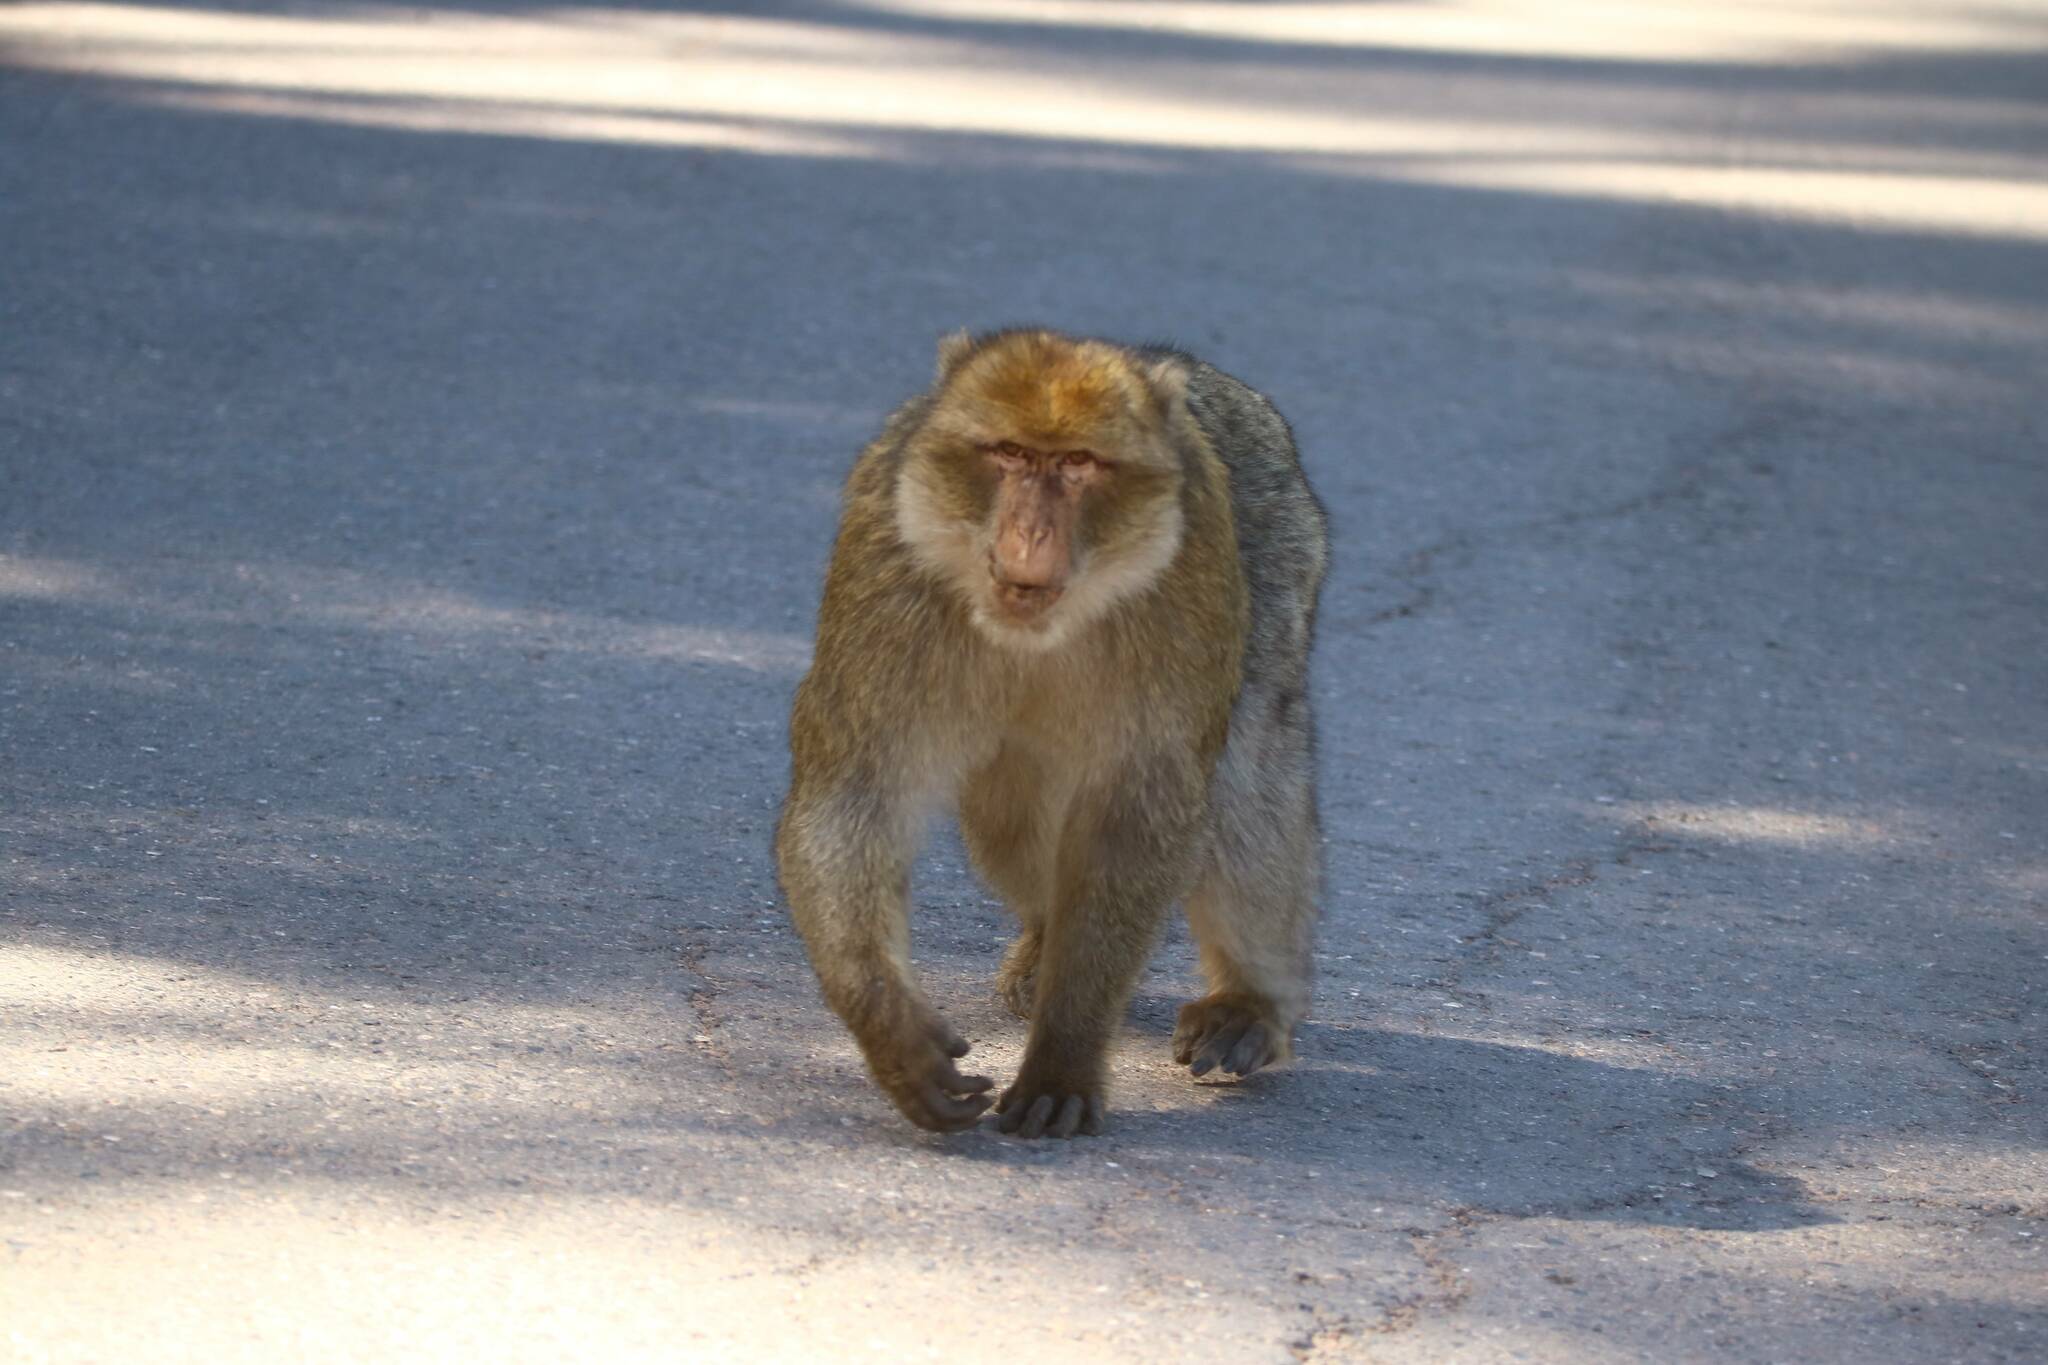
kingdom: Animalia
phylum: Chordata
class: Mammalia
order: Primates
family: Cercopithecidae
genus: Macaca
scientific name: Macaca sylvanus
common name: Barbary macaque
